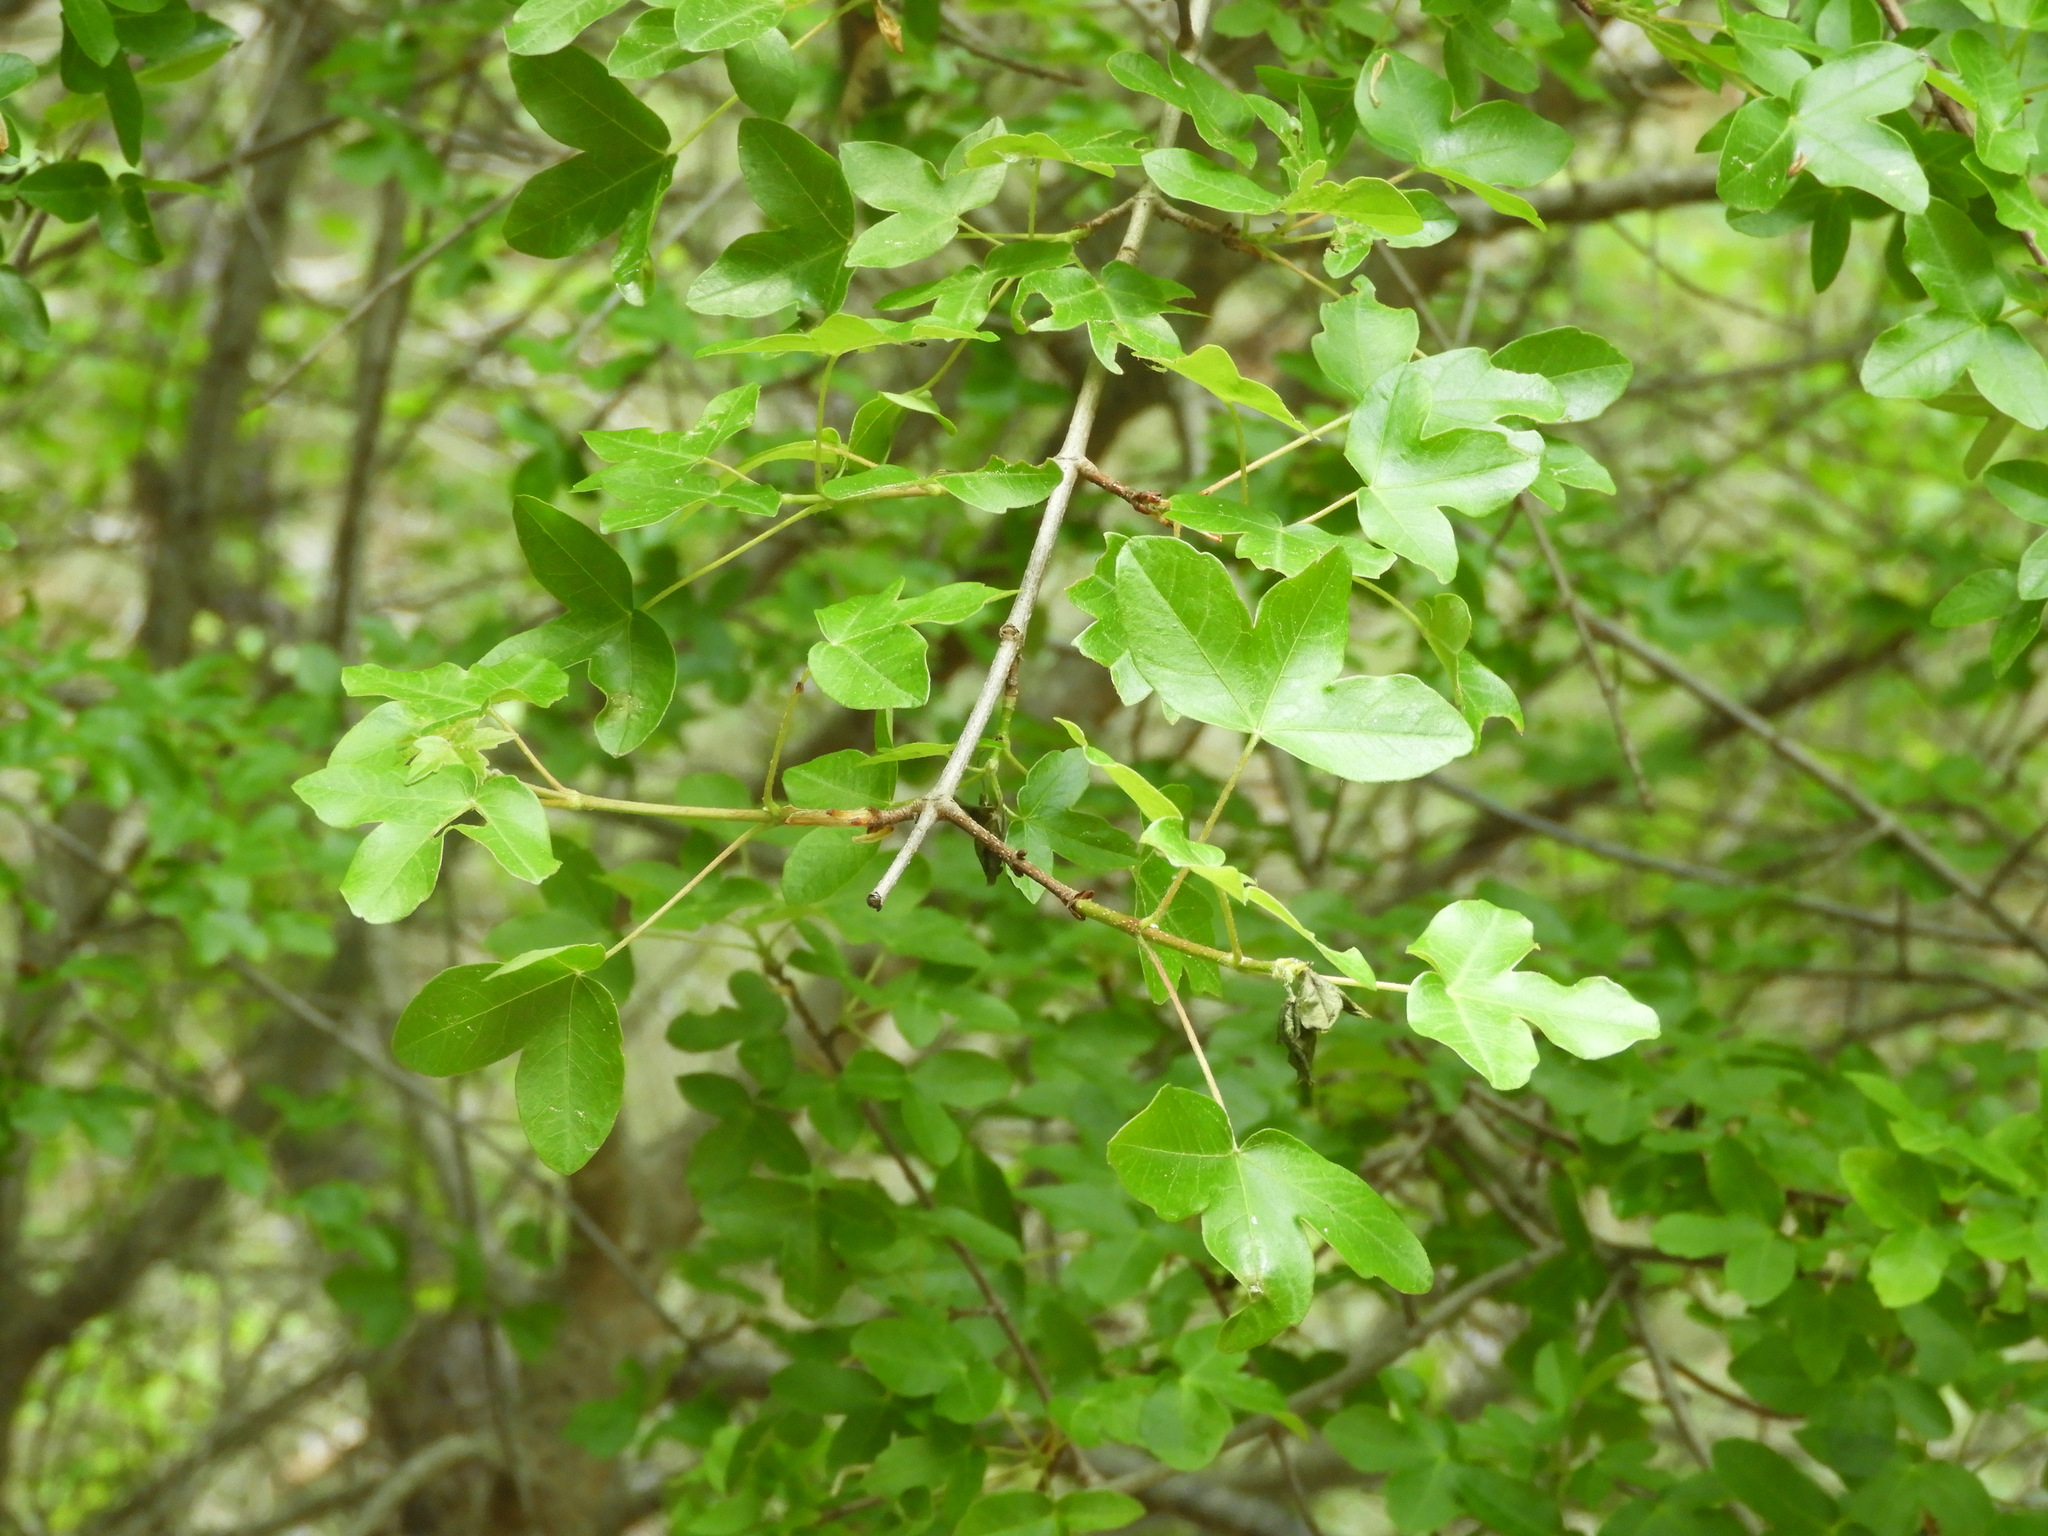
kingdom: Plantae
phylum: Tracheophyta
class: Magnoliopsida
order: Sapindales
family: Sapindaceae
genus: Acer
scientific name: Acer monspessulanum
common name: Montpellier maple
